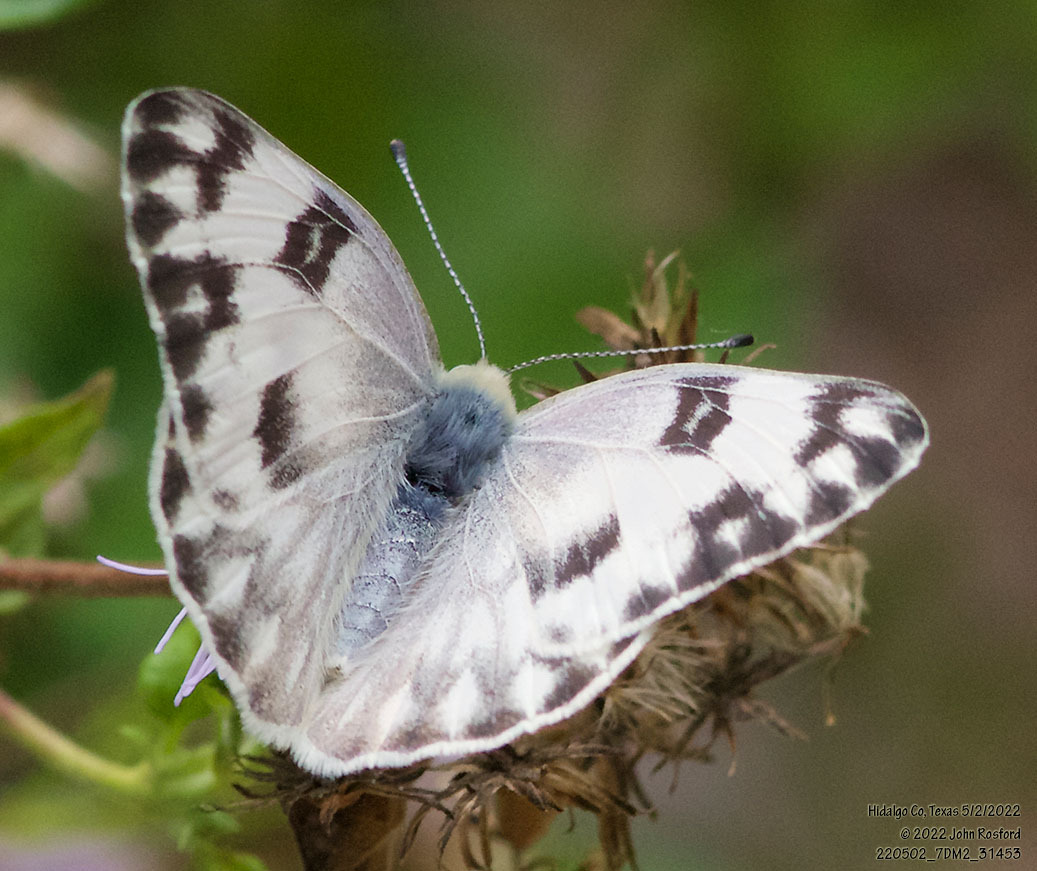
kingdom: Animalia
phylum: Arthropoda
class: Insecta
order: Lepidoptera
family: Pieridae
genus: Pontia
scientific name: Pontia protodice
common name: Checkered white
